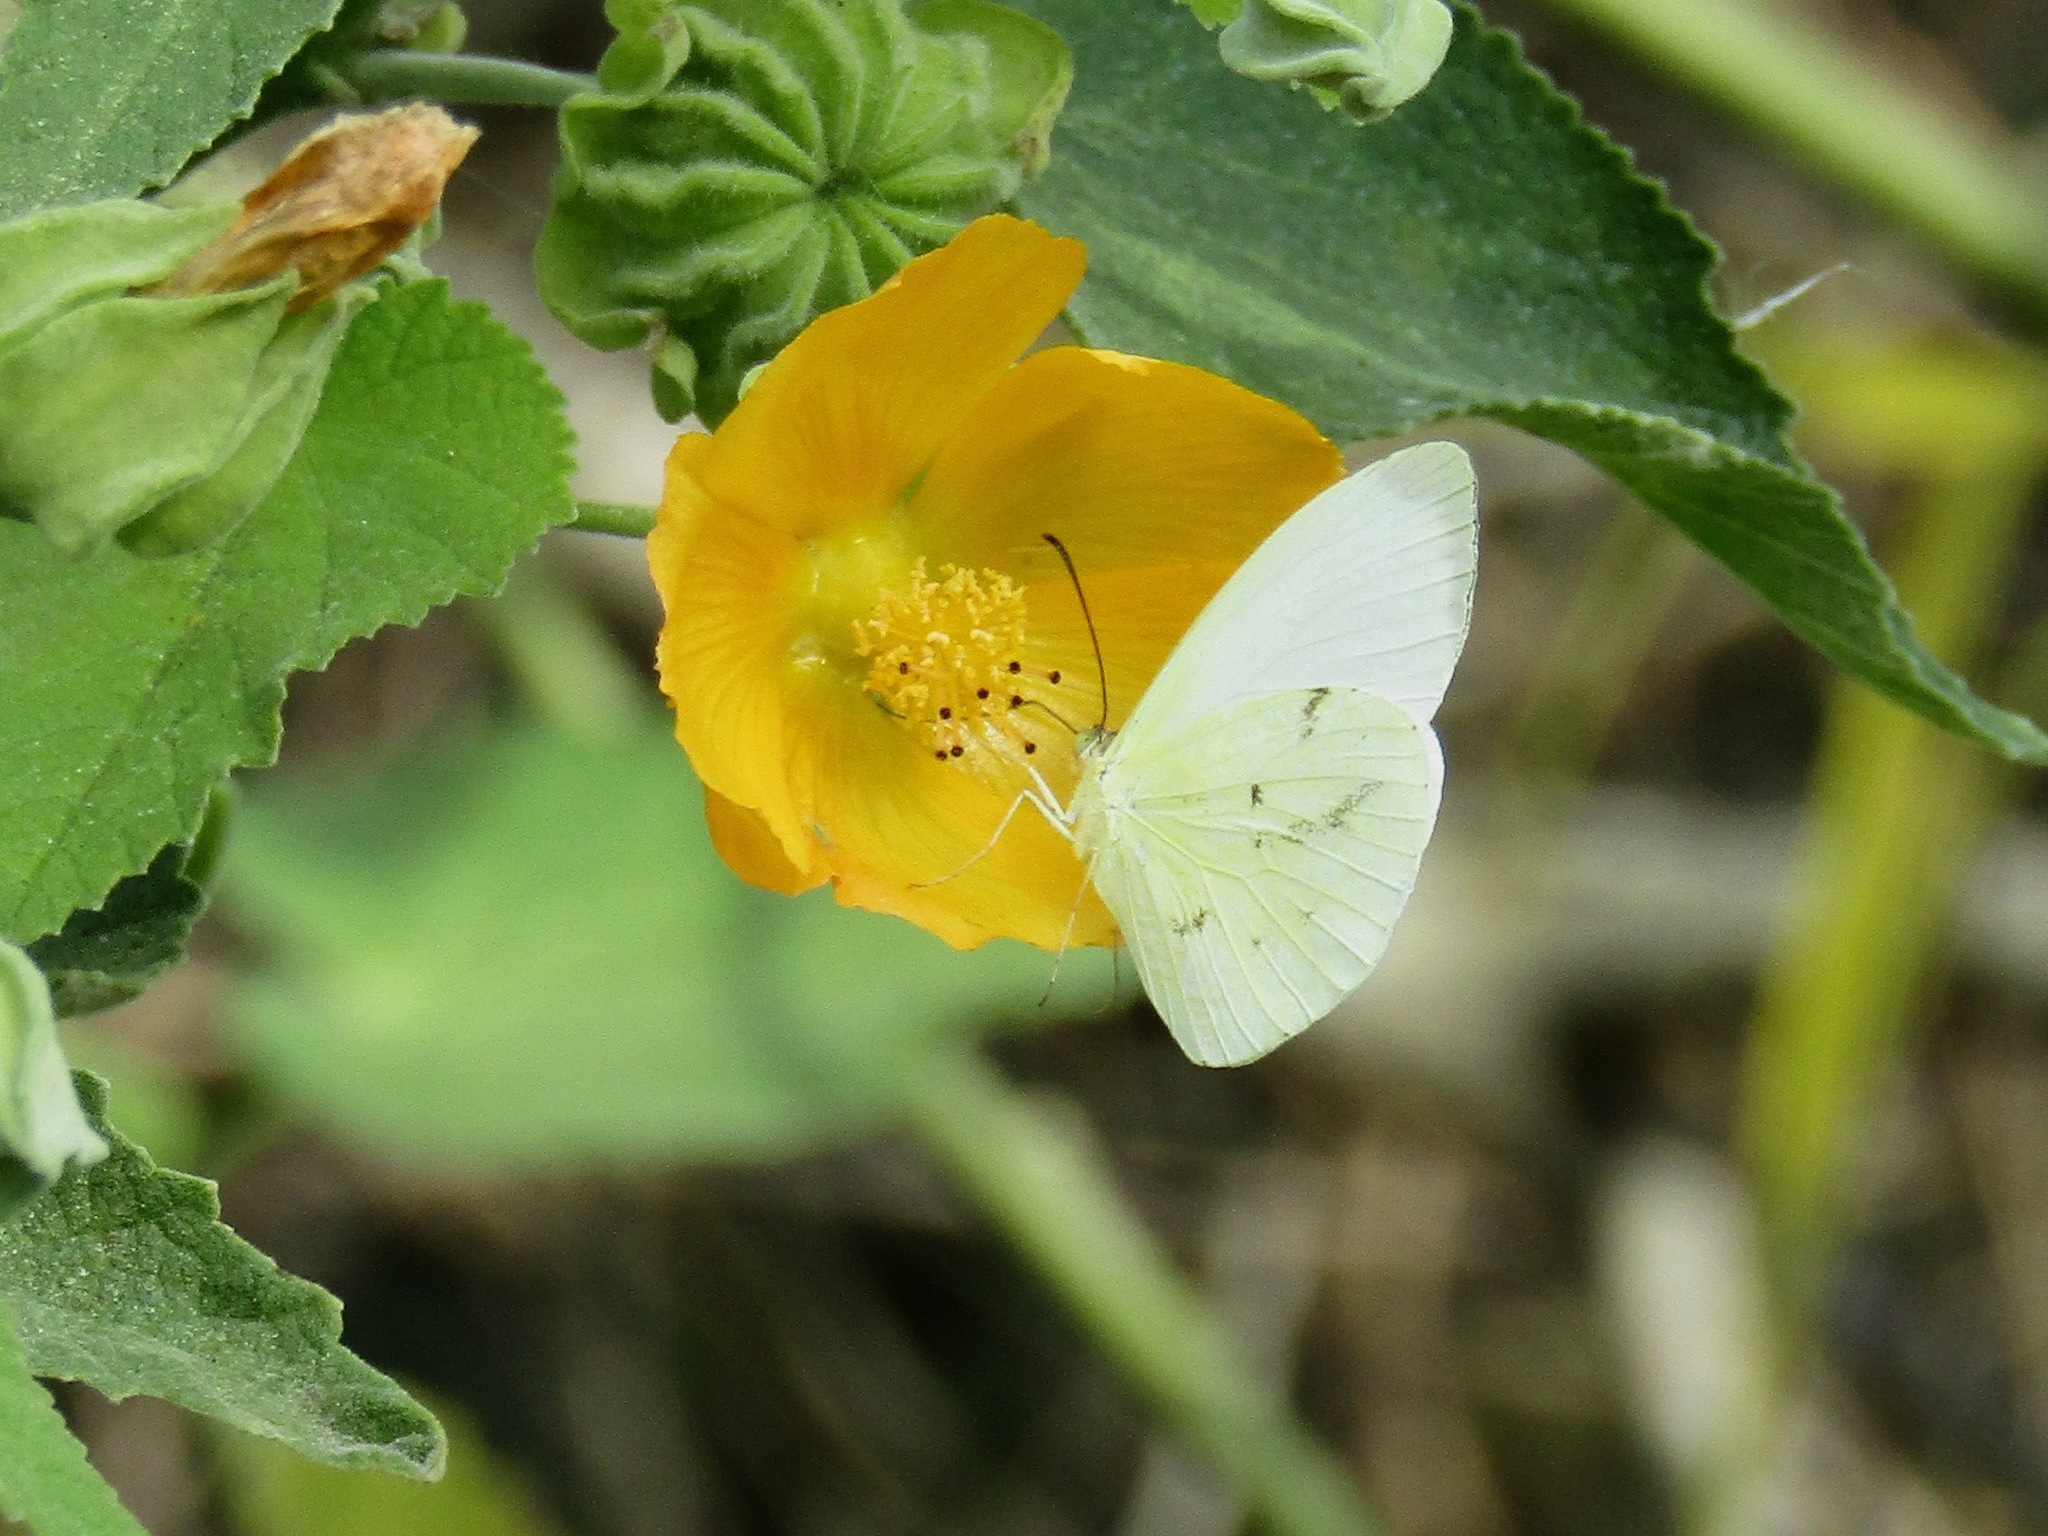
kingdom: Animalia
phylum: Arthropoda
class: Insecta
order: Lepidoptera
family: Pieridae
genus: Abaeis
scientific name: Abaeis albula
